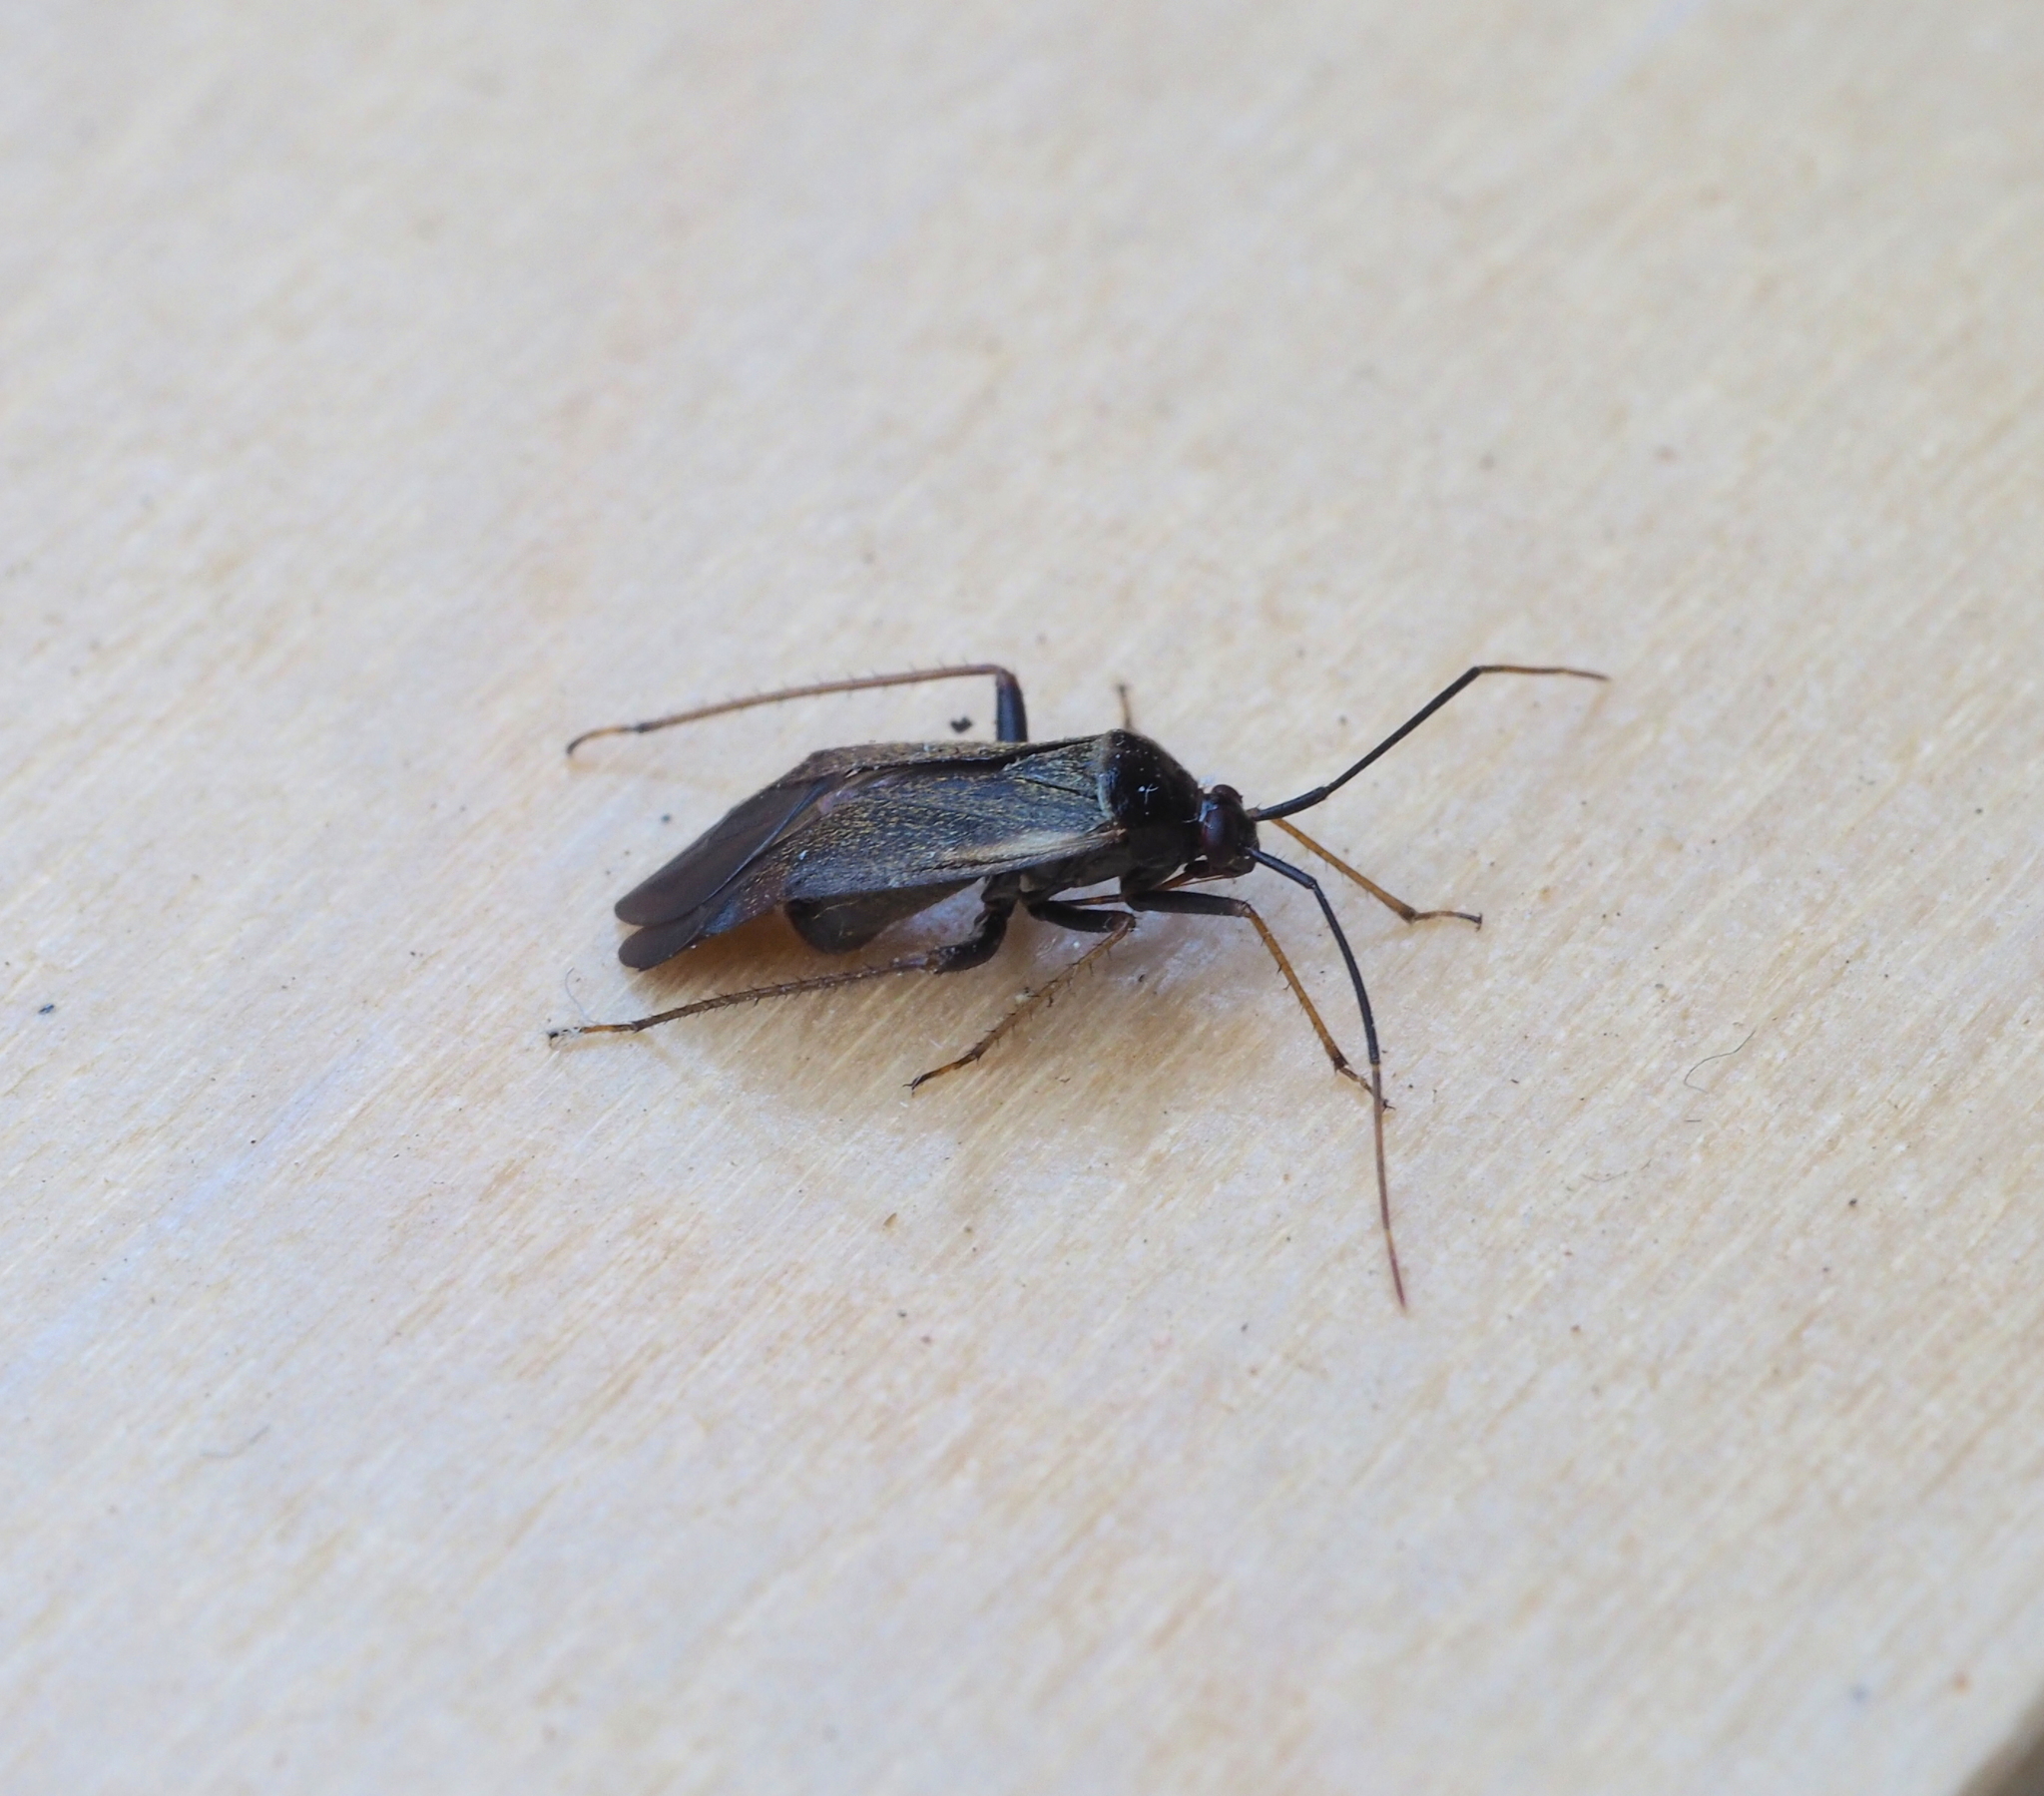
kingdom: Animalia
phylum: Arthropoda
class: Insecta
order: Hemiptera
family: Miridae
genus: Adelphocoris
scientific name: Adelphocoris seticornis
